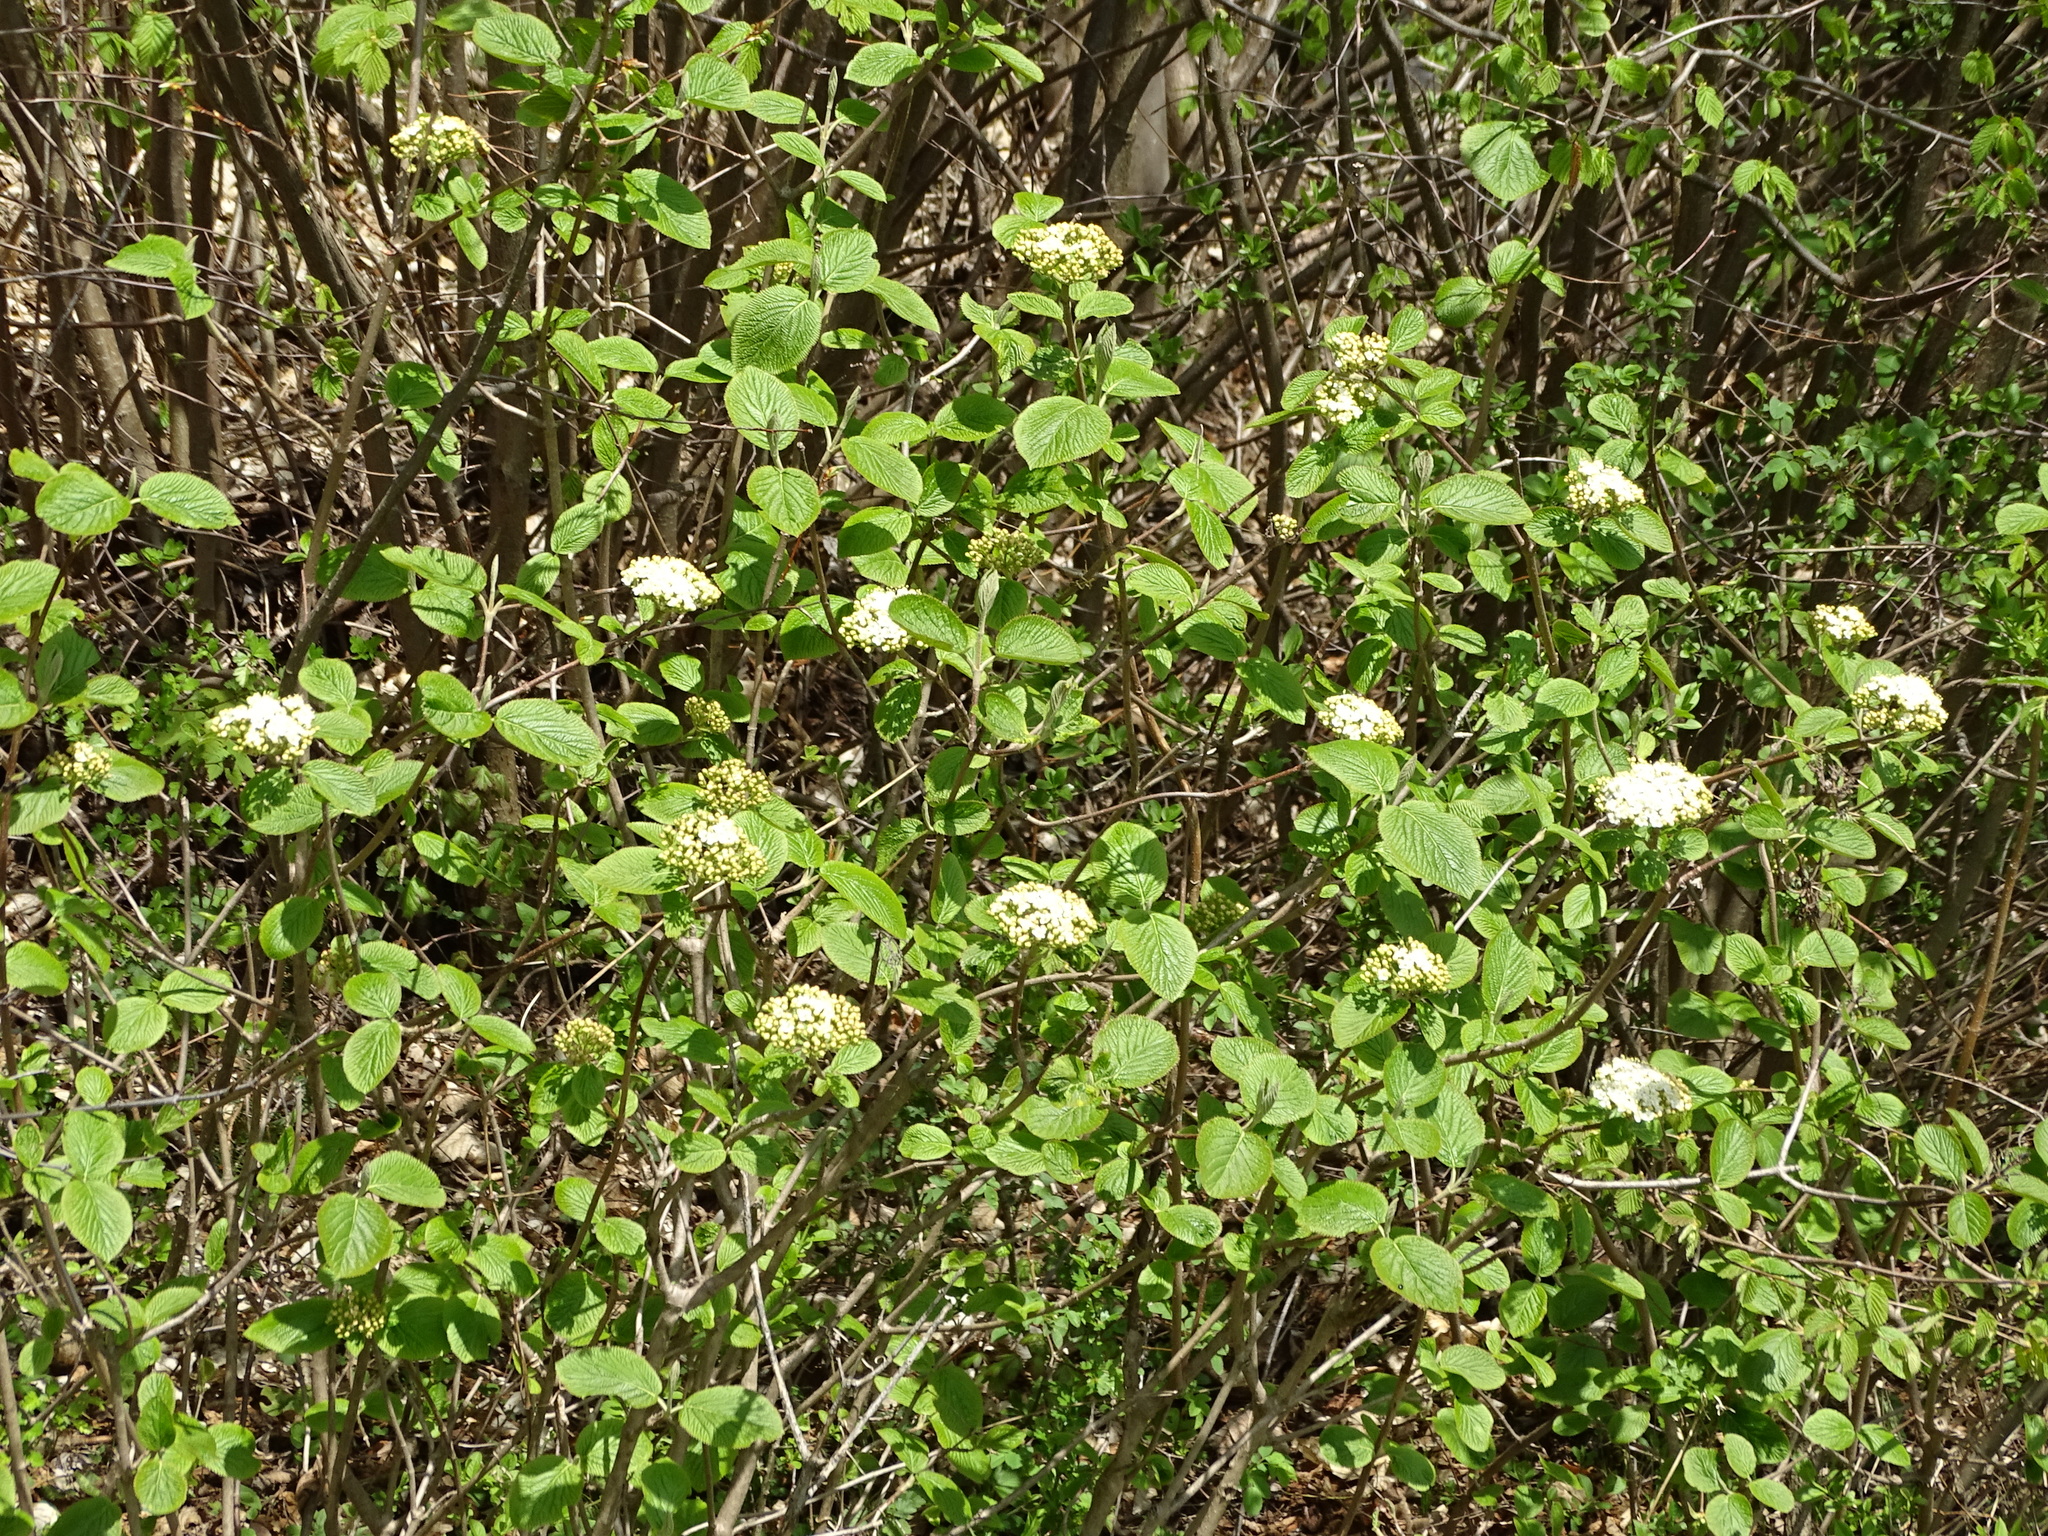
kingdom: Plantae
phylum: Tracheophyta
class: Magnoliopsida
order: Dipsacales
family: Viburnaceae
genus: Viburnum
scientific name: Viburnum lantana
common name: Wayfaring tree
